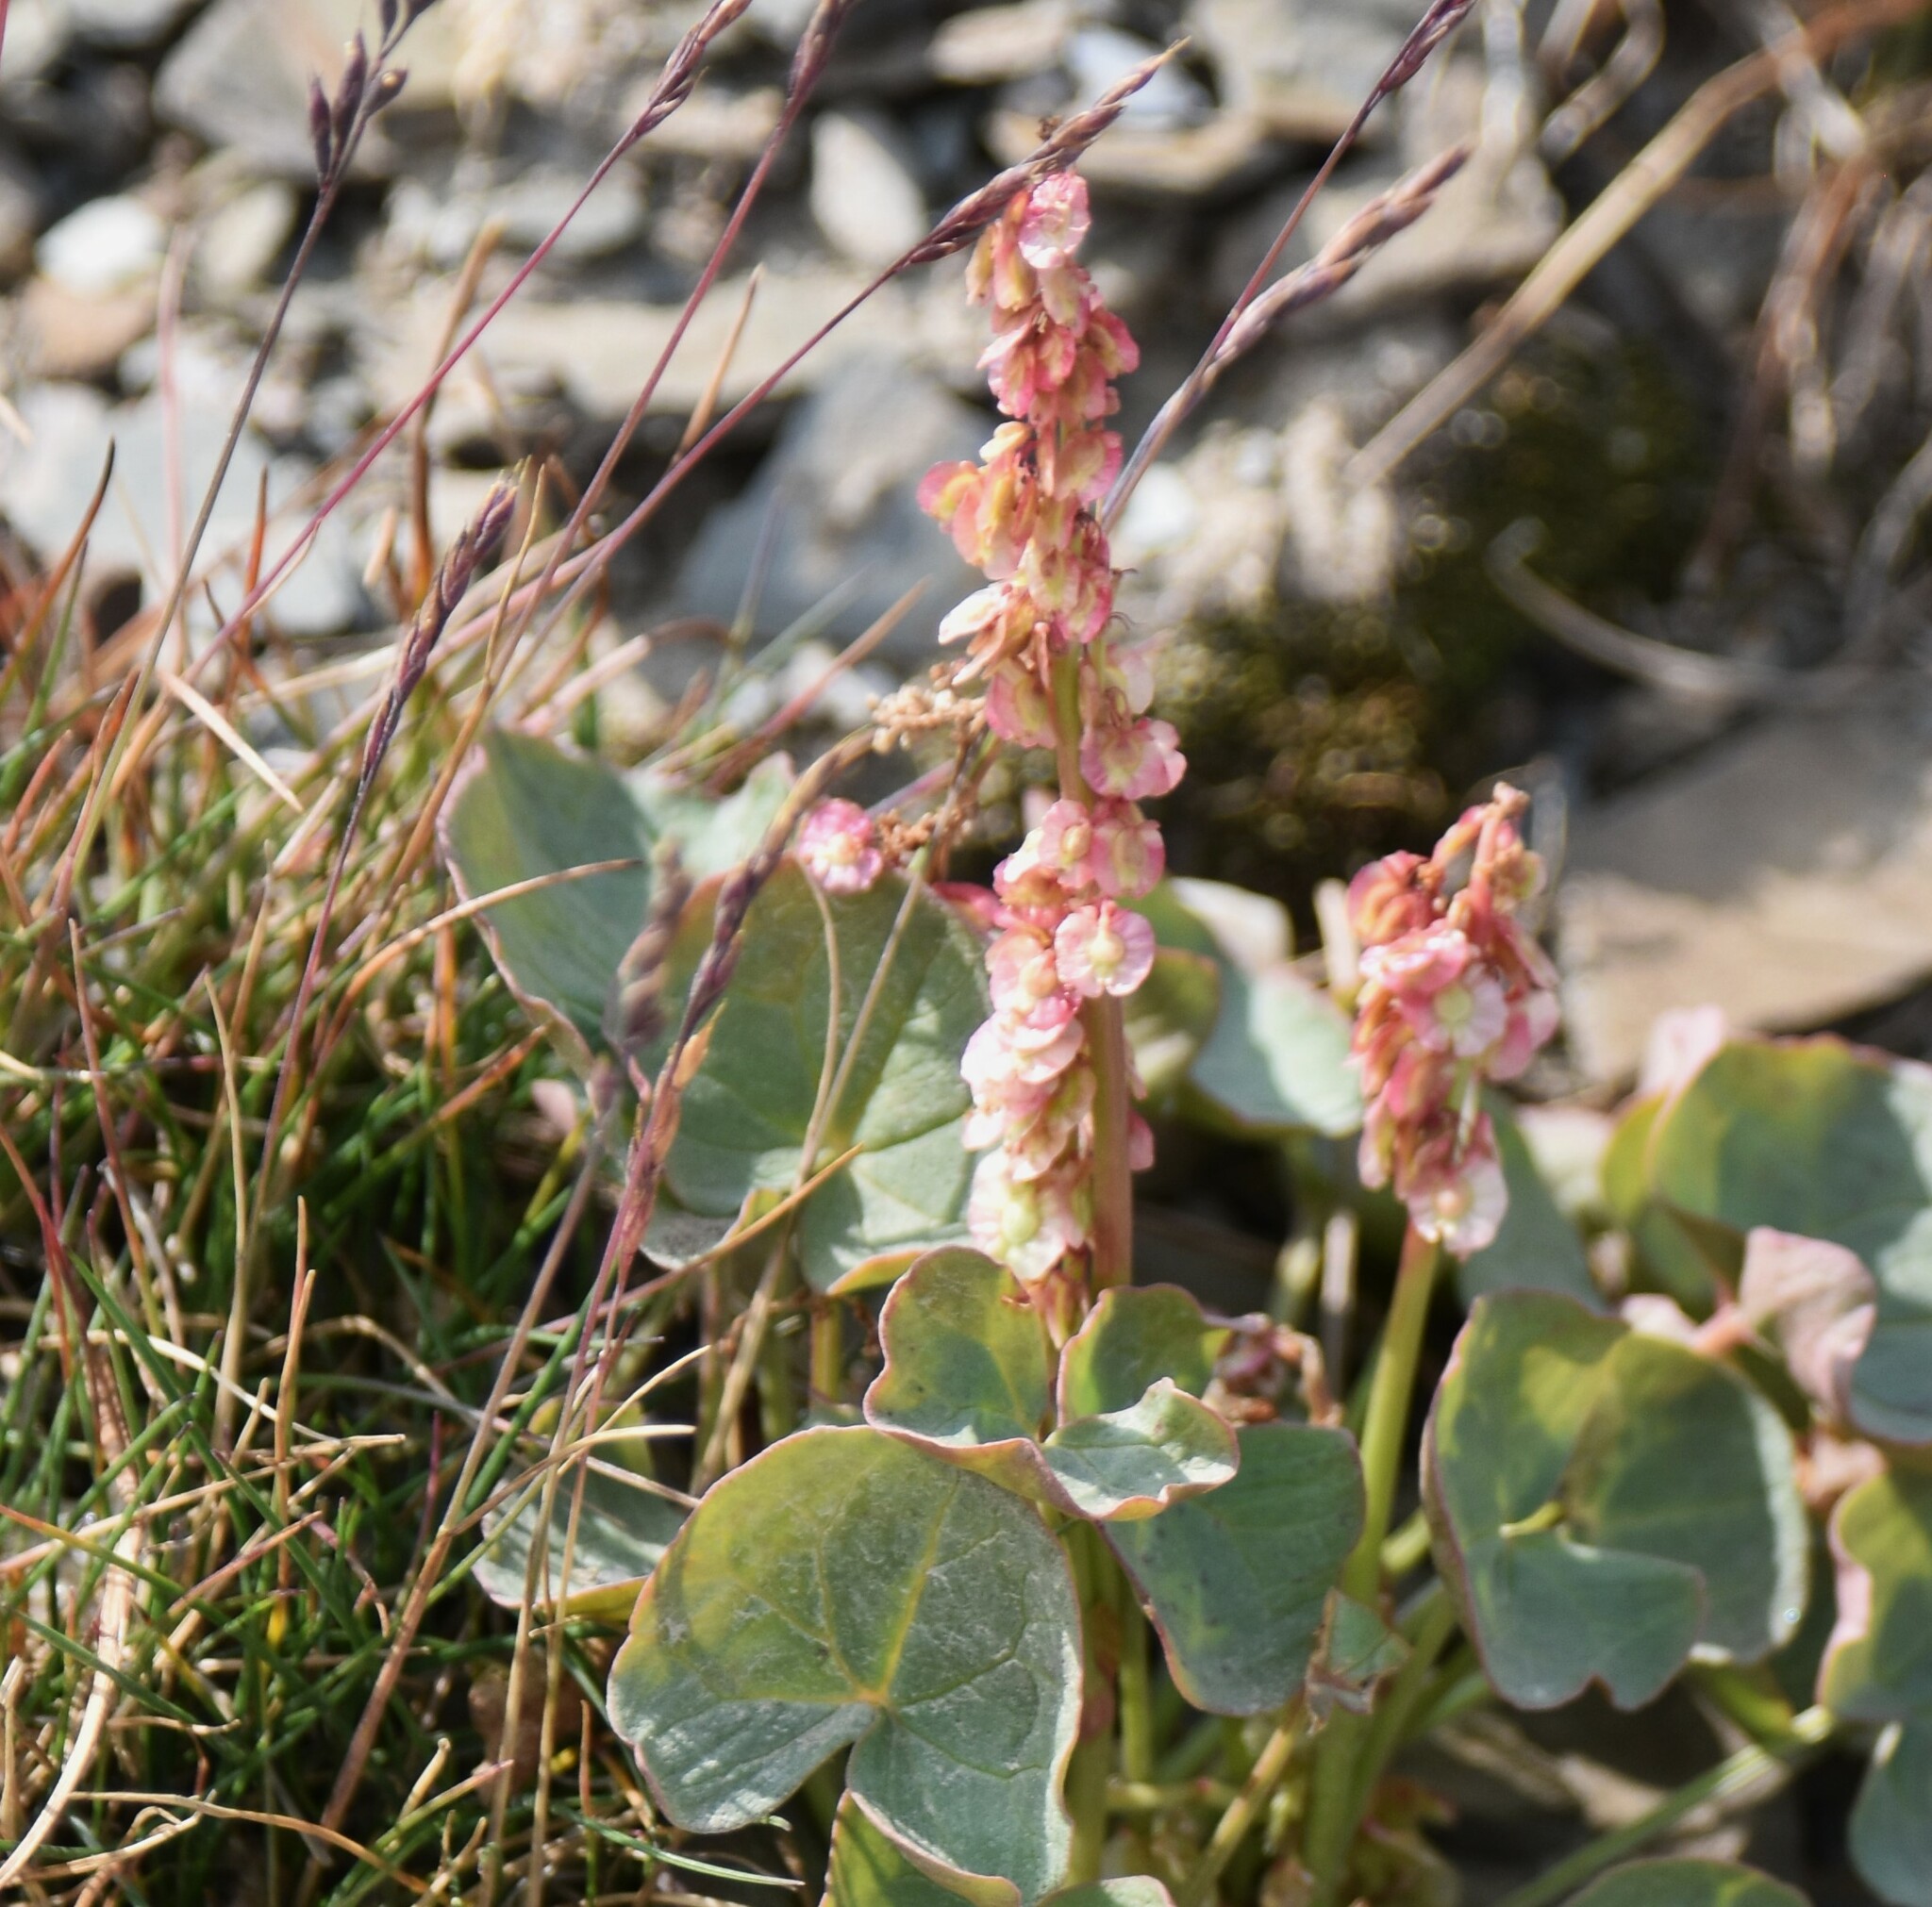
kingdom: Plantae
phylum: Tracheophyta
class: Magnoliopsida
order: Caryophyllales
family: Polygonaceae
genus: Oxyria
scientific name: Oxyria digyna
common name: Alpine mountain-sorrel
